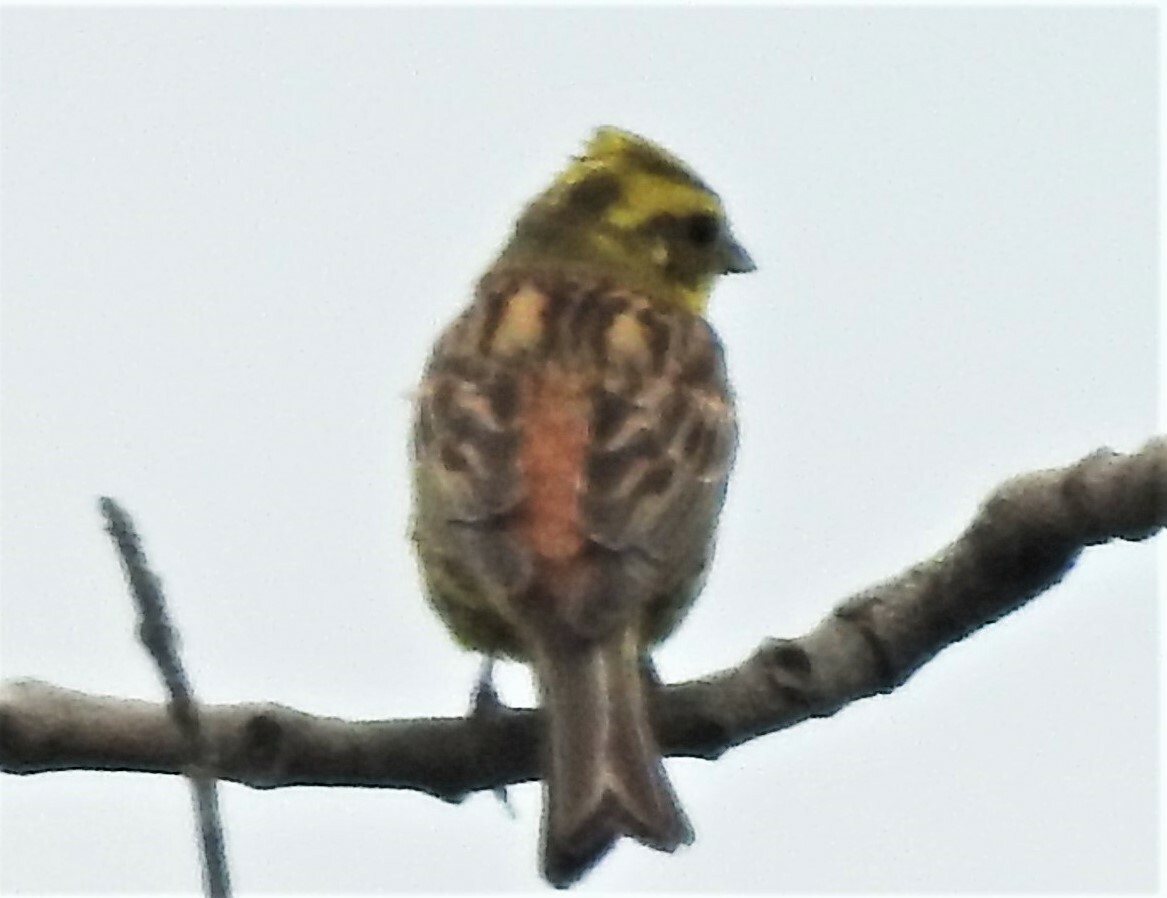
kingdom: Animalia
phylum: Chordata
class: Aves
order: Passeriformes
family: Emberizidae
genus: Emberiza
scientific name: Emberiza citrinella
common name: Yellowhammer
